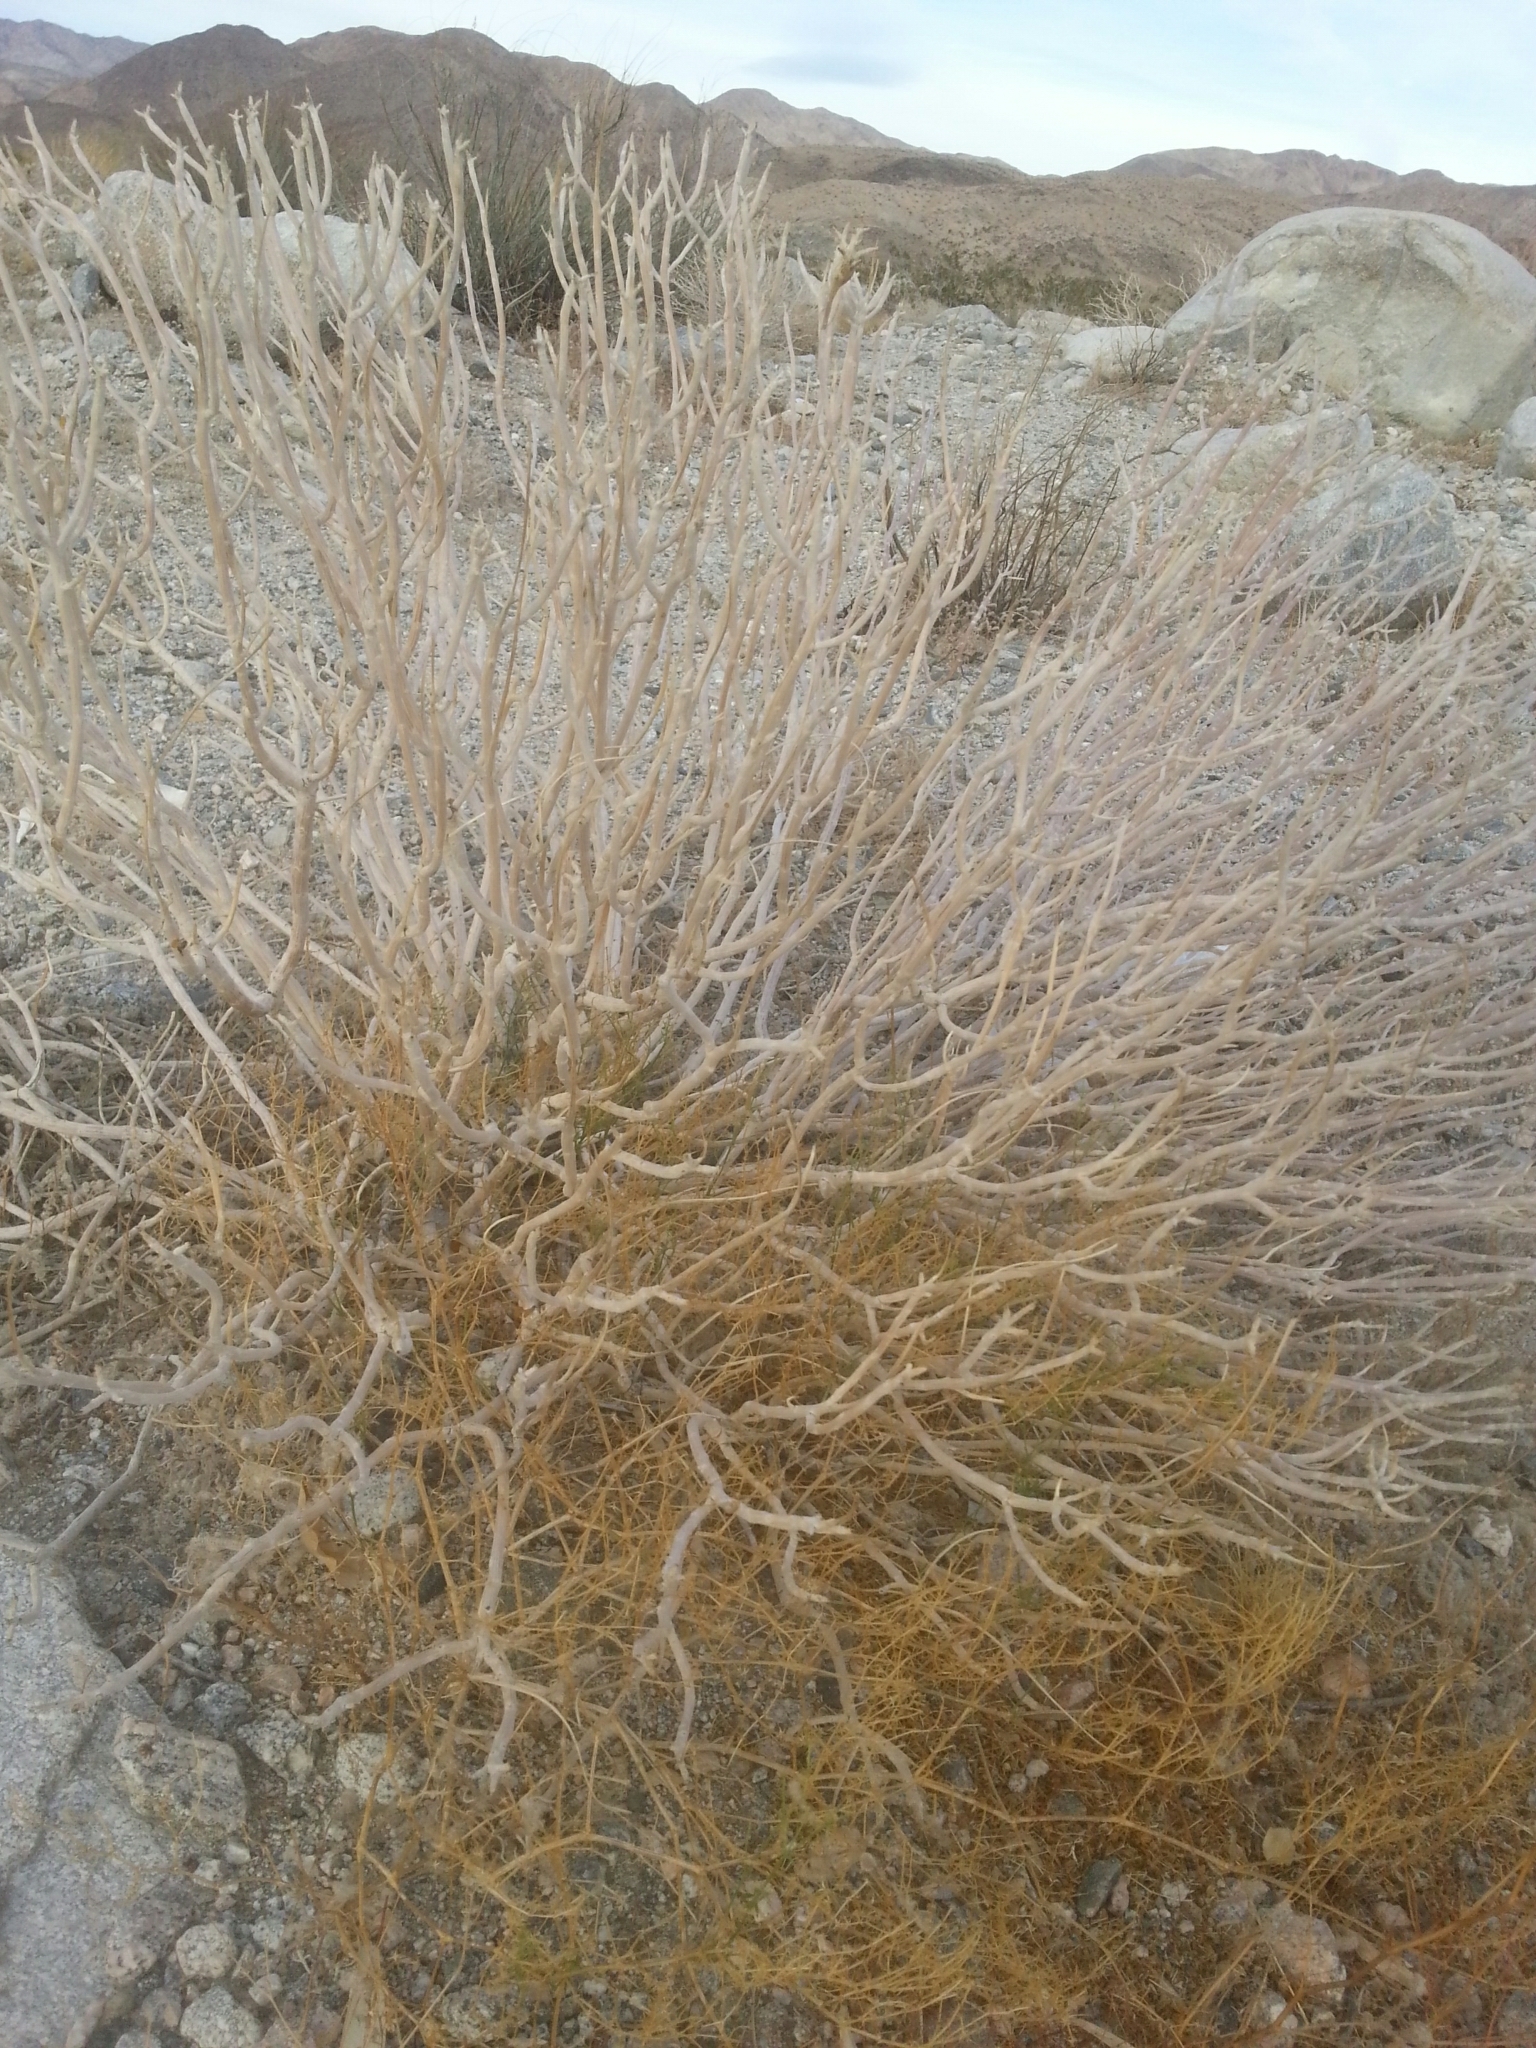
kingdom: Plantae
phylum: Tracheophyta
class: Magnoliopsida
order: Asterales
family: Asteraceae
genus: Encelia
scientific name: Encelia farinosa
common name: Brittlebush
